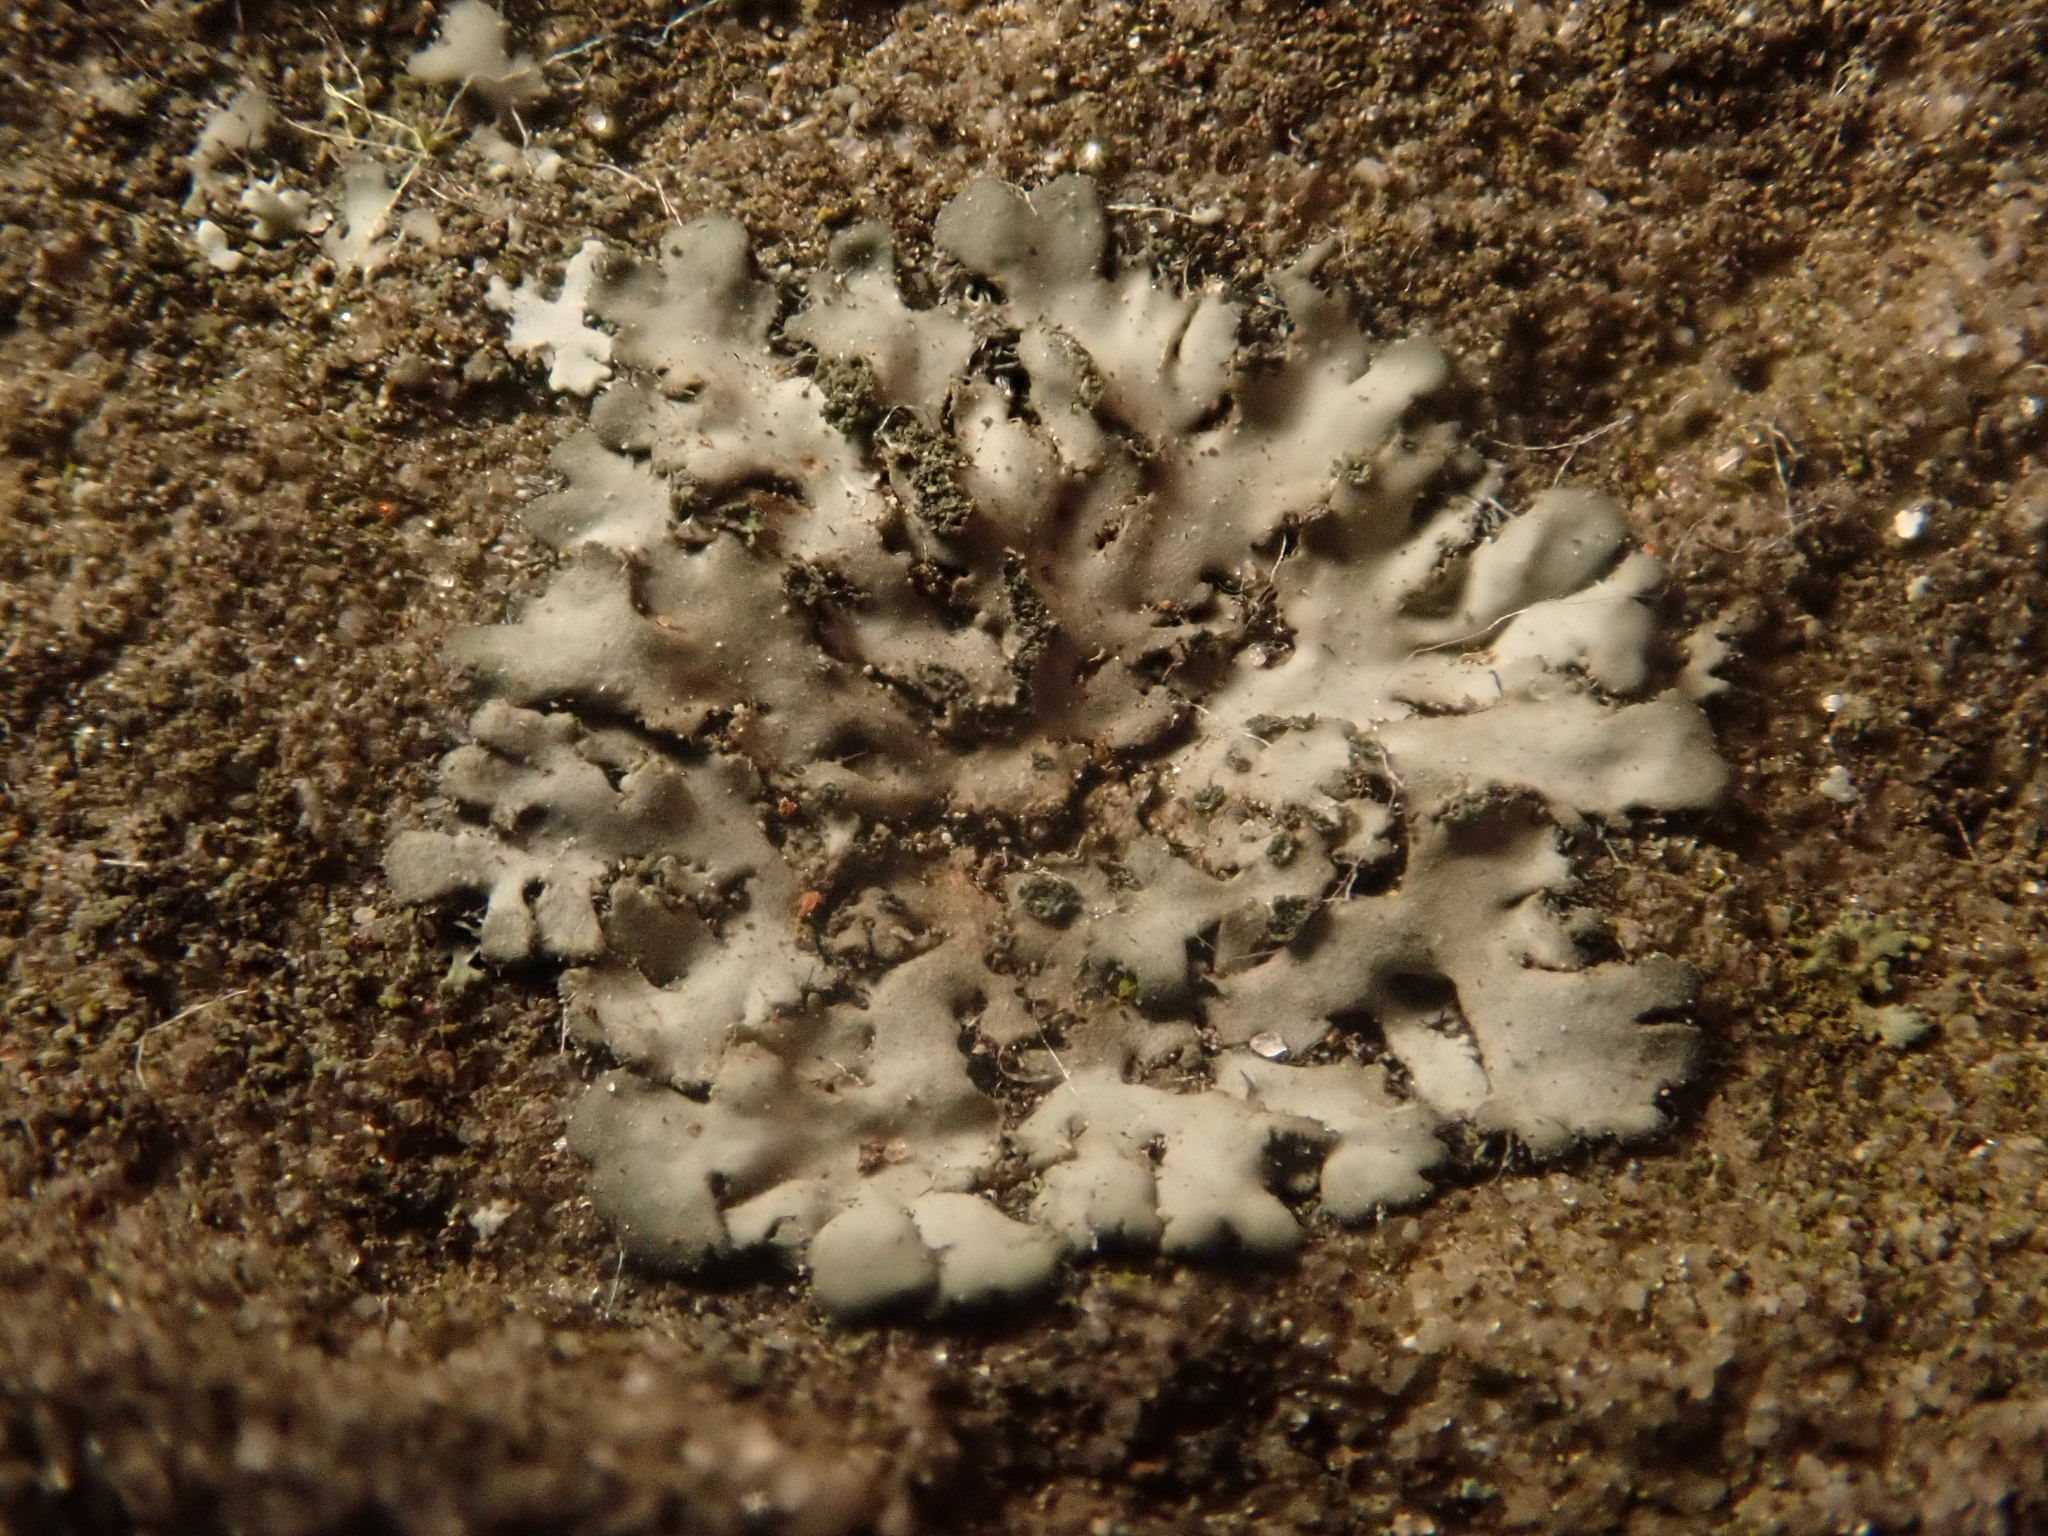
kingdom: Fungi
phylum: Ascomycota
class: Lecanoromycetes
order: Caliciales
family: Physciaceae
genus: Phaeophyscia
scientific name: Phaeophyscia orbicularis
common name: Mealy shadow lichen
